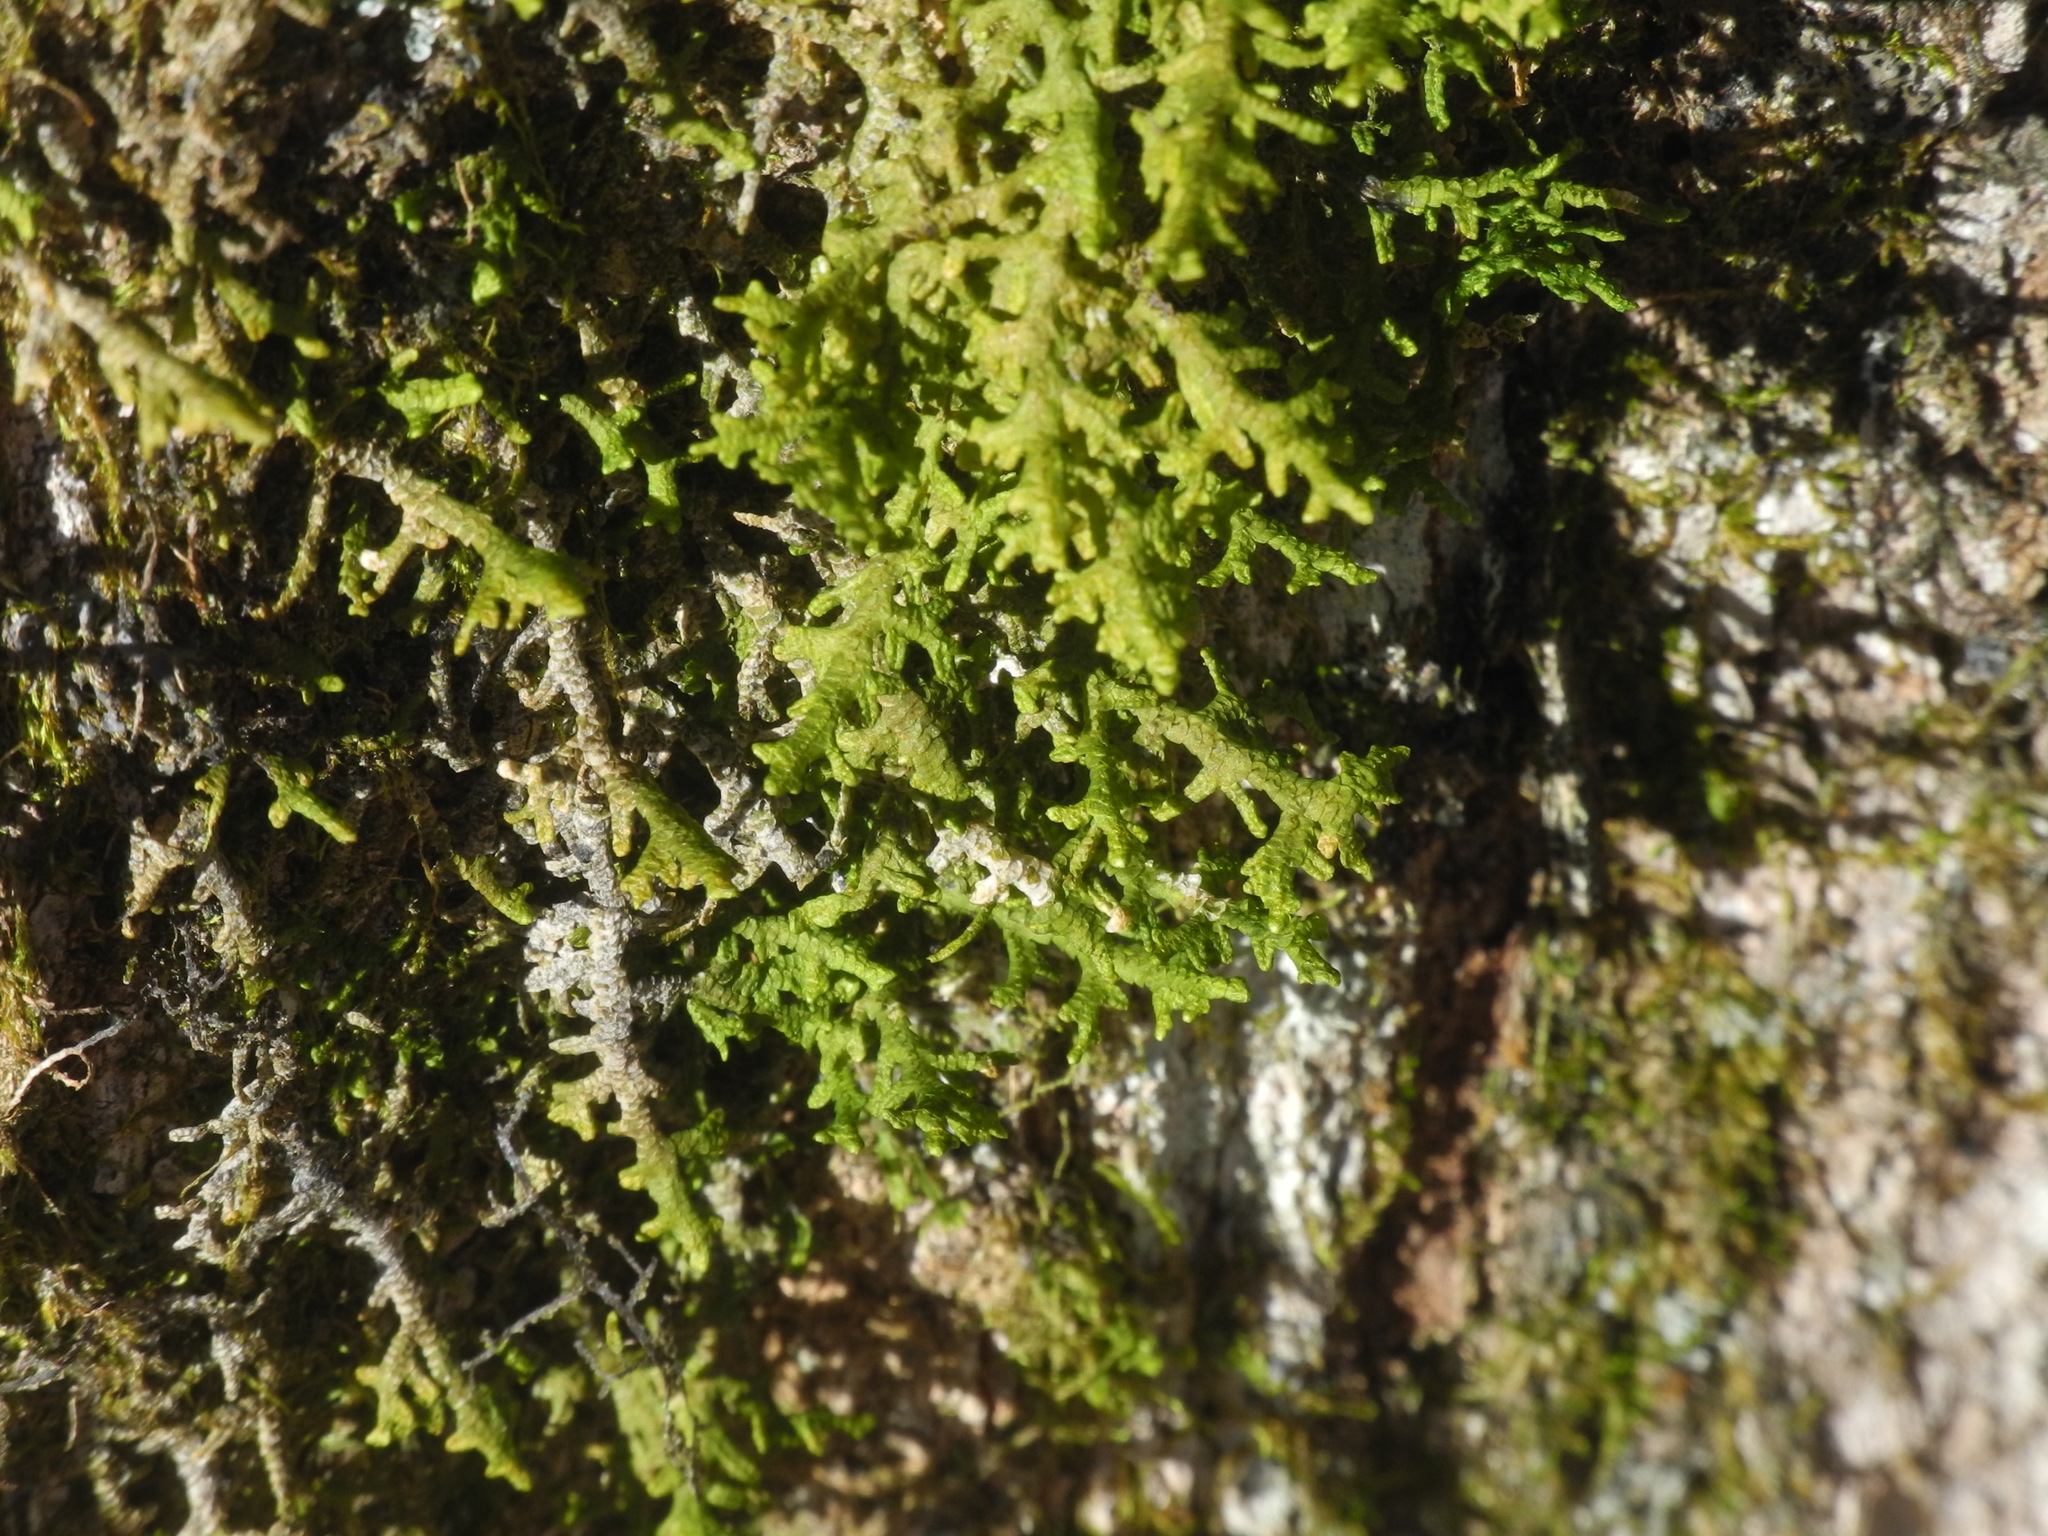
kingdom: Plantae
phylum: Marchantiophyta
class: Jungermanniopsida
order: Porellales
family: Porellaceae
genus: Porella
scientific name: Porella platyphylla
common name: Wall scalewort
